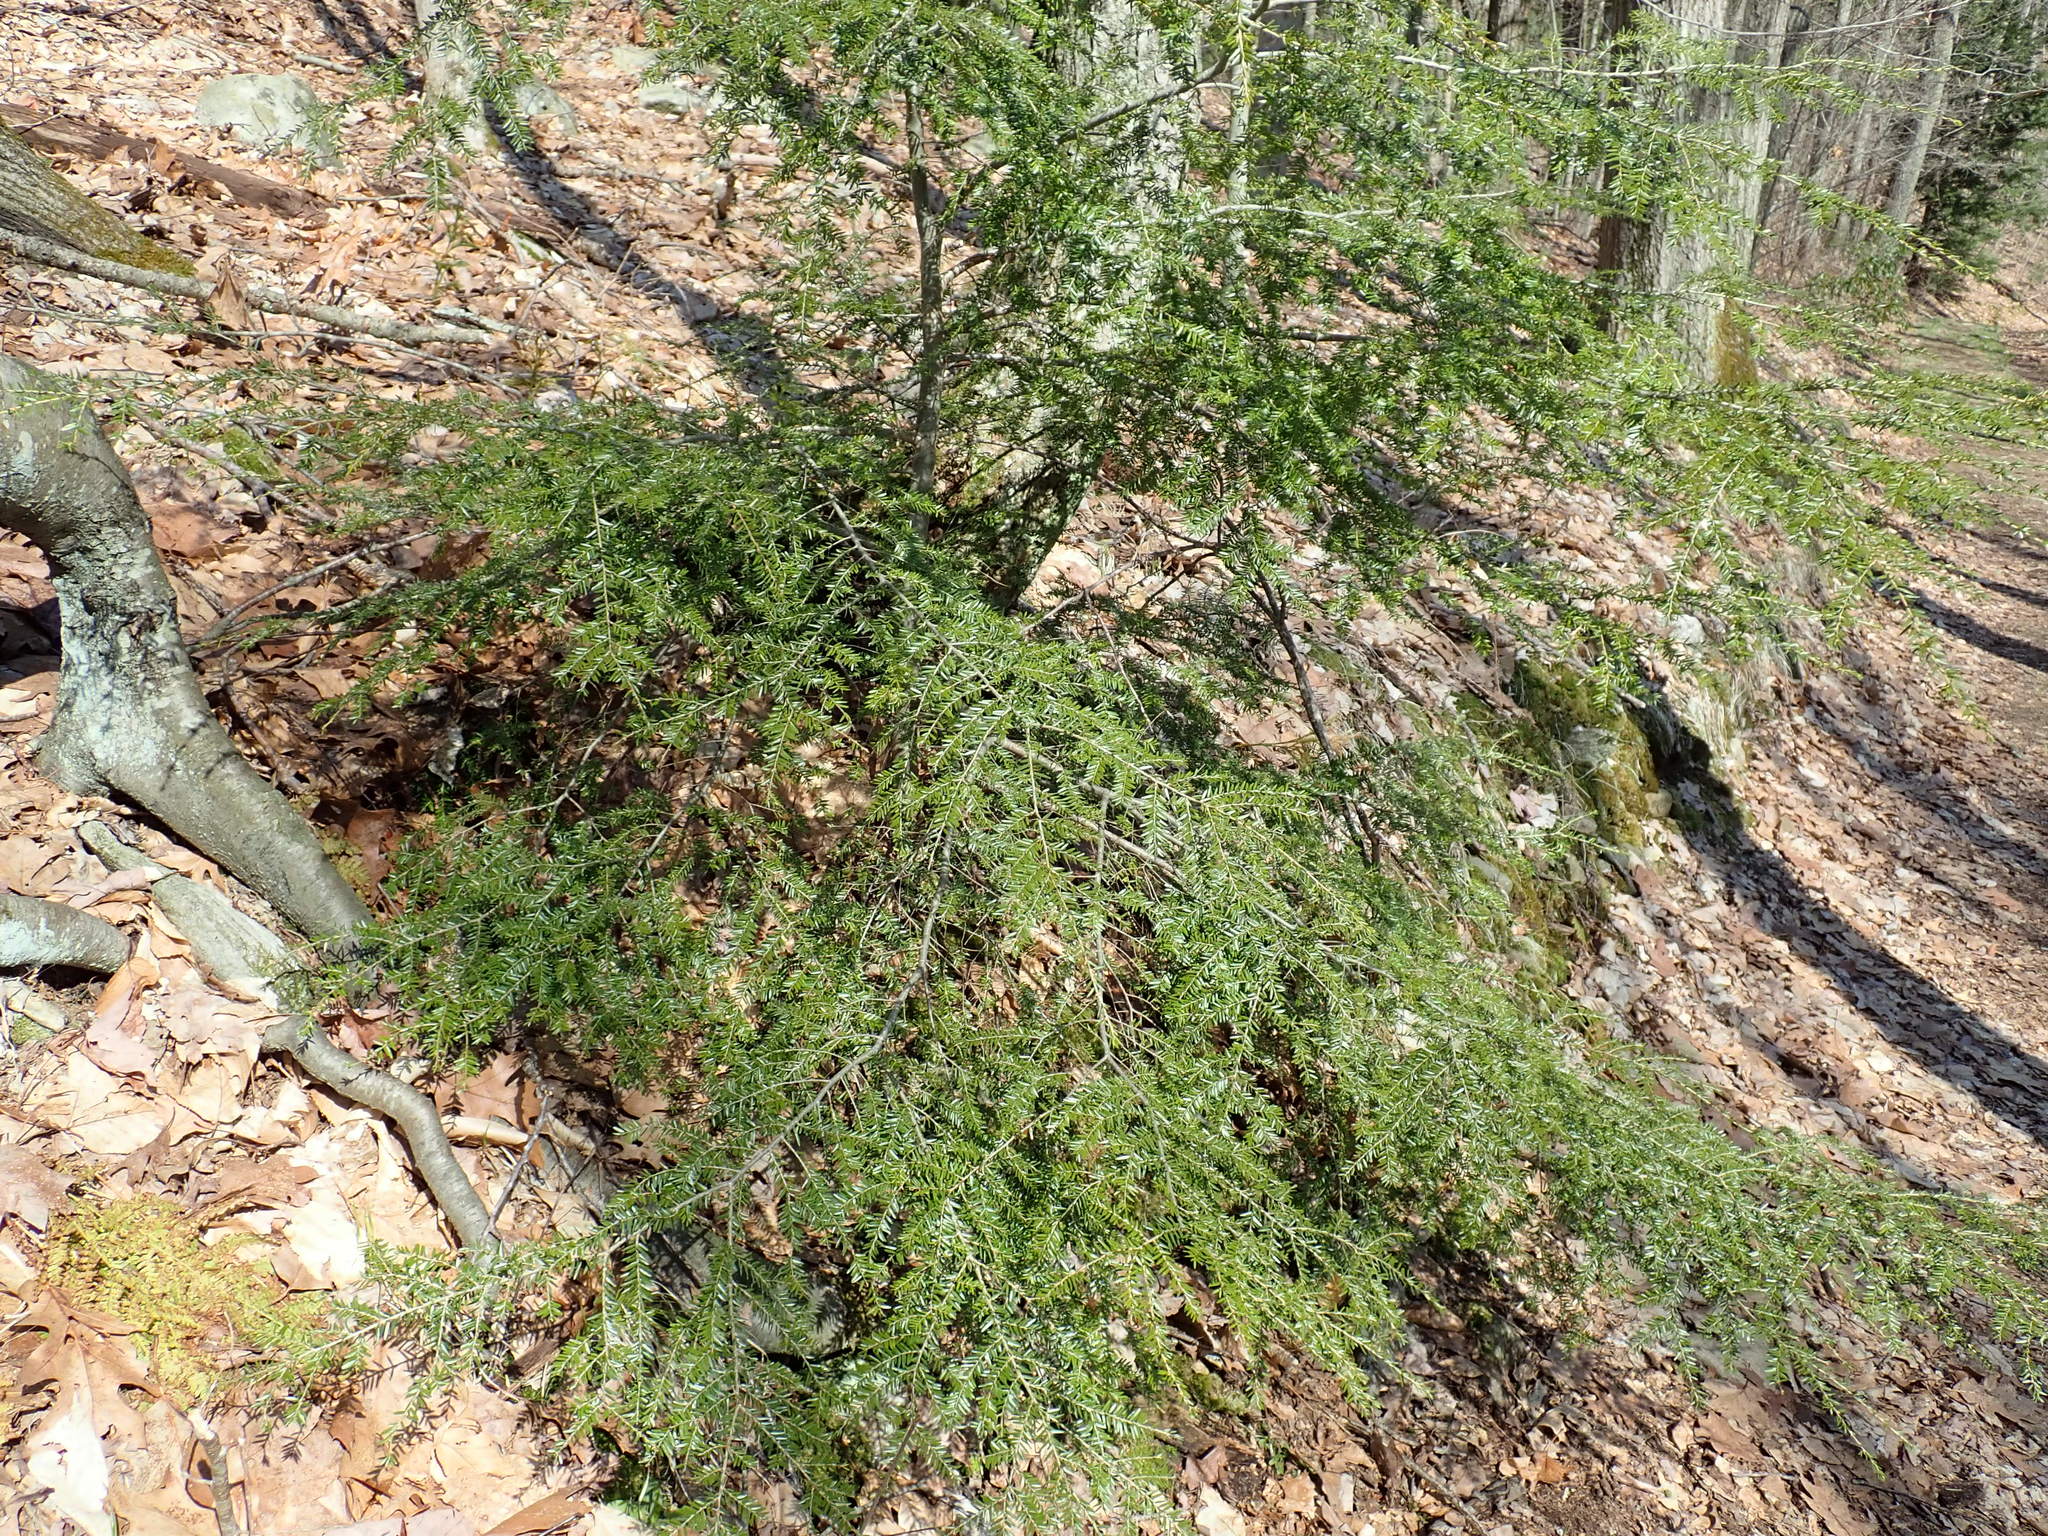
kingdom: Plantae
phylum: Tracheophyta
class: Pinopsida
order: Pinales
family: Pinaceae
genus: Tsuga
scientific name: Tsuga canadensis
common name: Eastern hemlock
